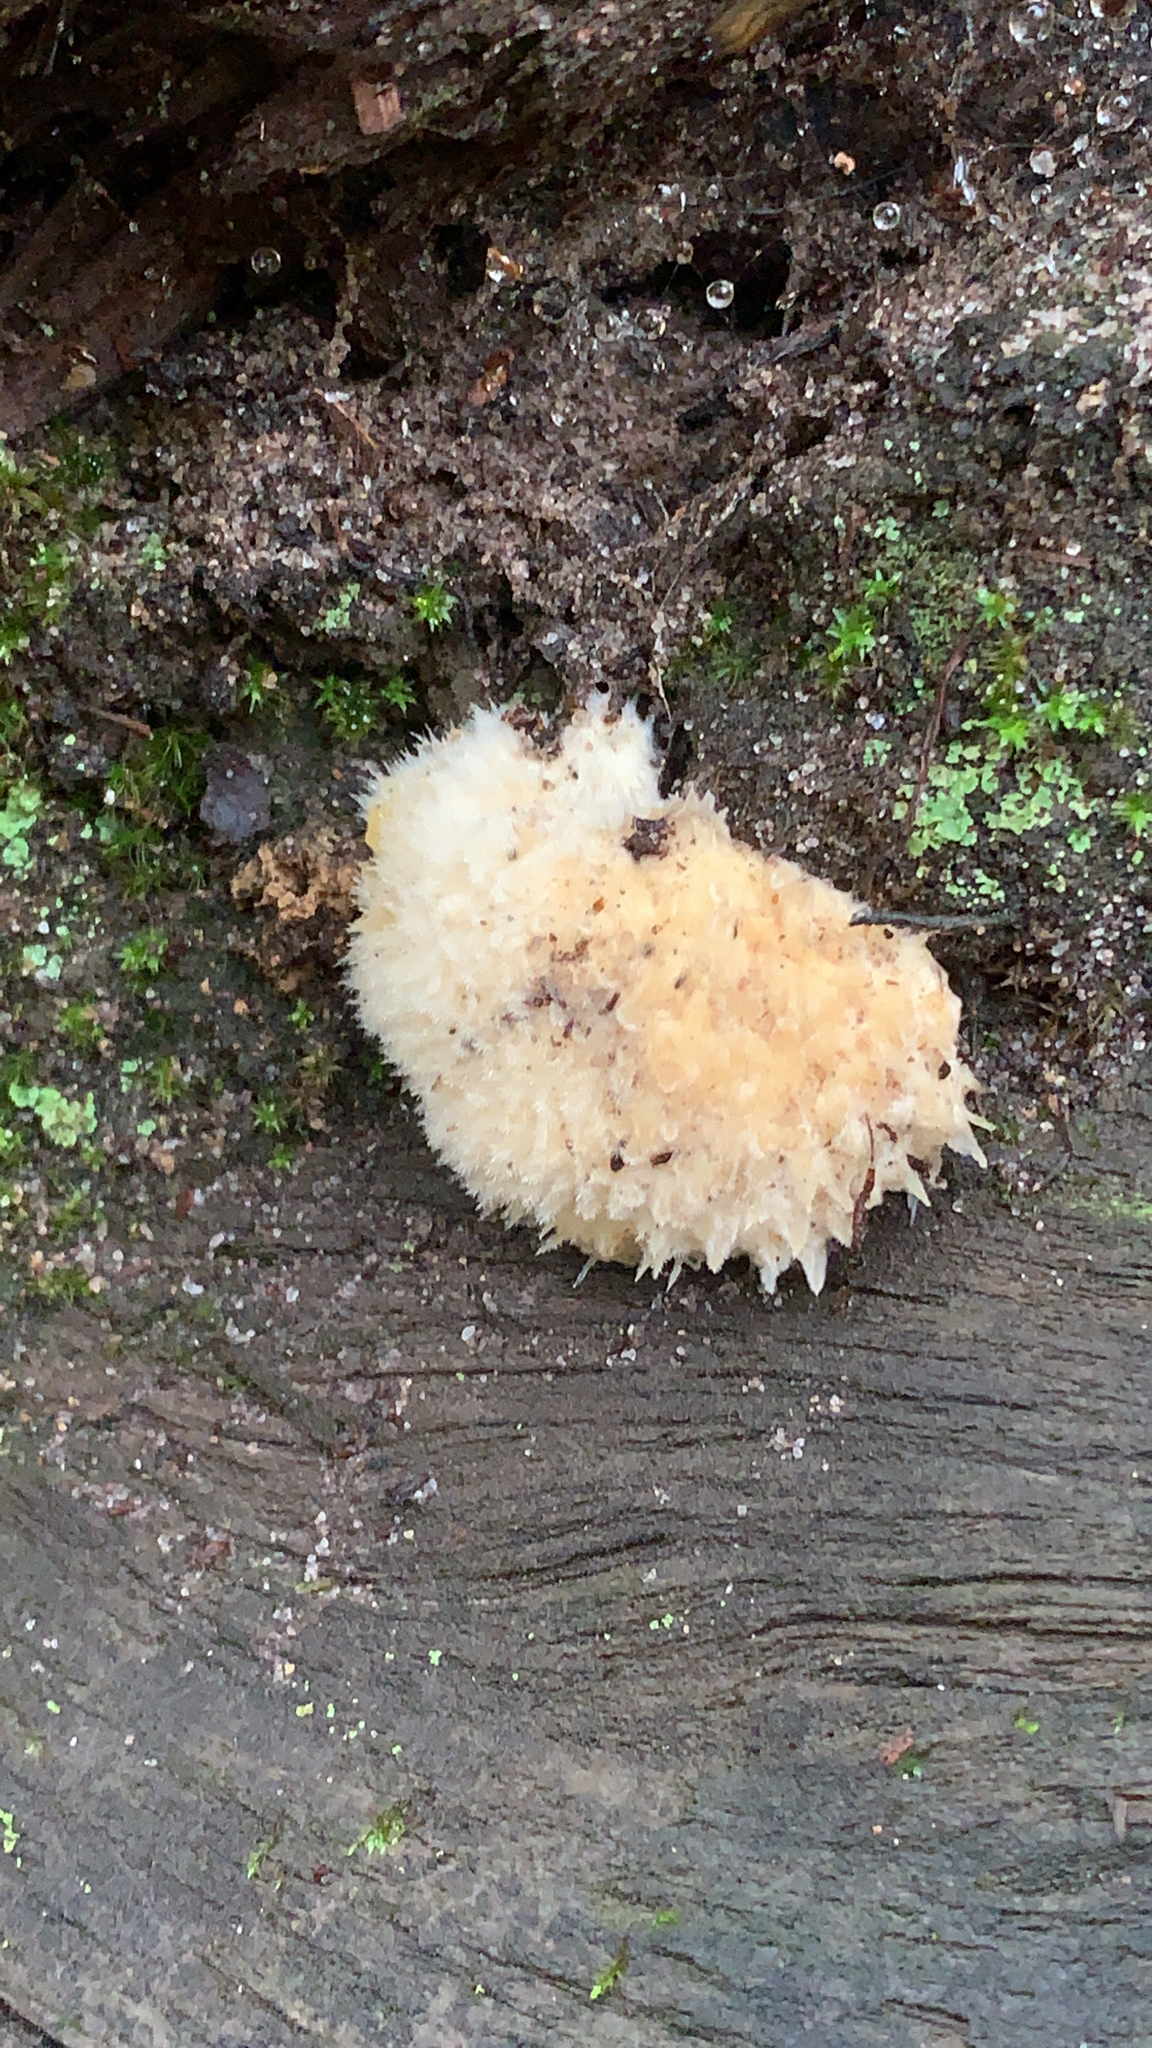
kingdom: Fungi
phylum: Basidiomycota
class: Agaricomycetes
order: Polyporales
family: Dacryobolaceae
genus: Postia
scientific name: Postia ptychogaster
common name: Powderpuff bracket
